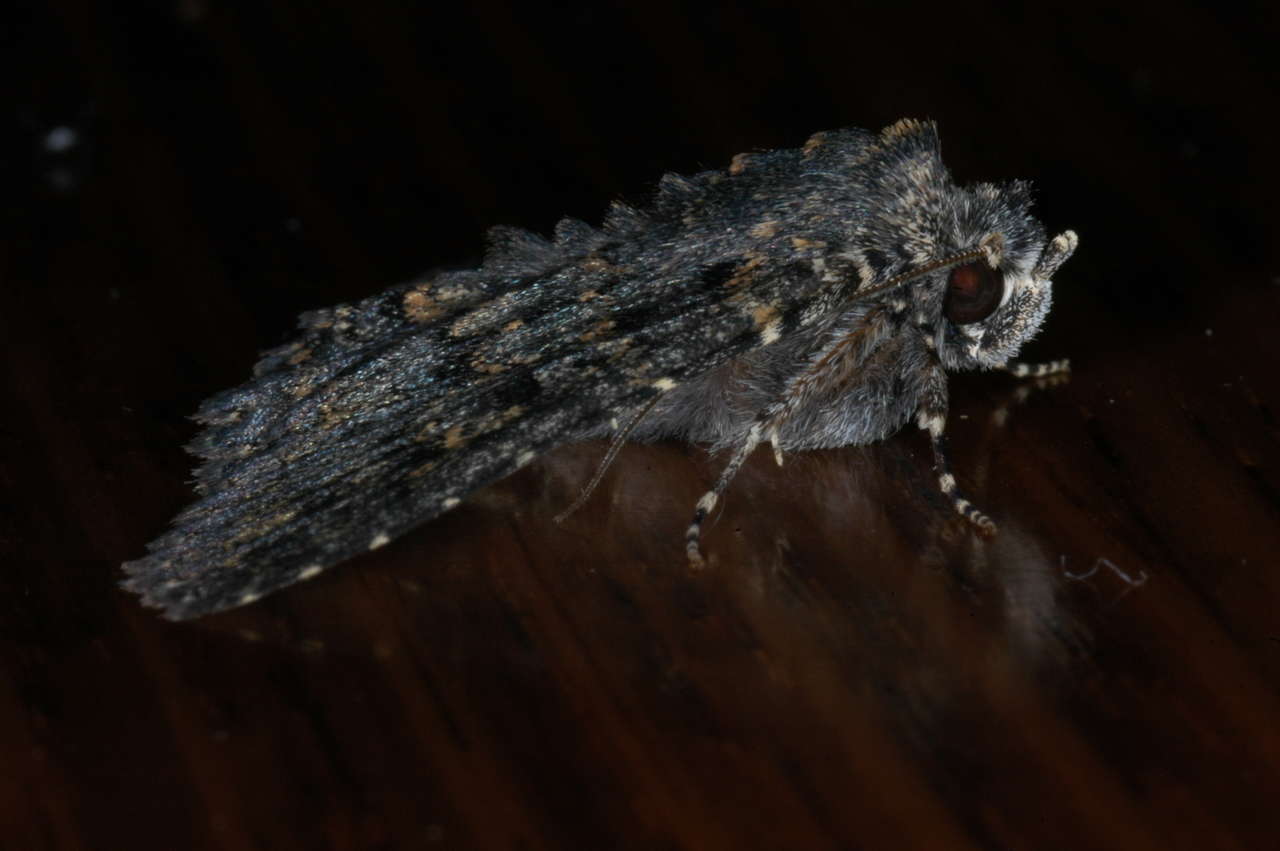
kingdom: Animalia
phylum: Arthropoda
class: Insecta
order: Lepidoptera
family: Erebidae
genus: Praxis
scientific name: Praxis edwardsii
